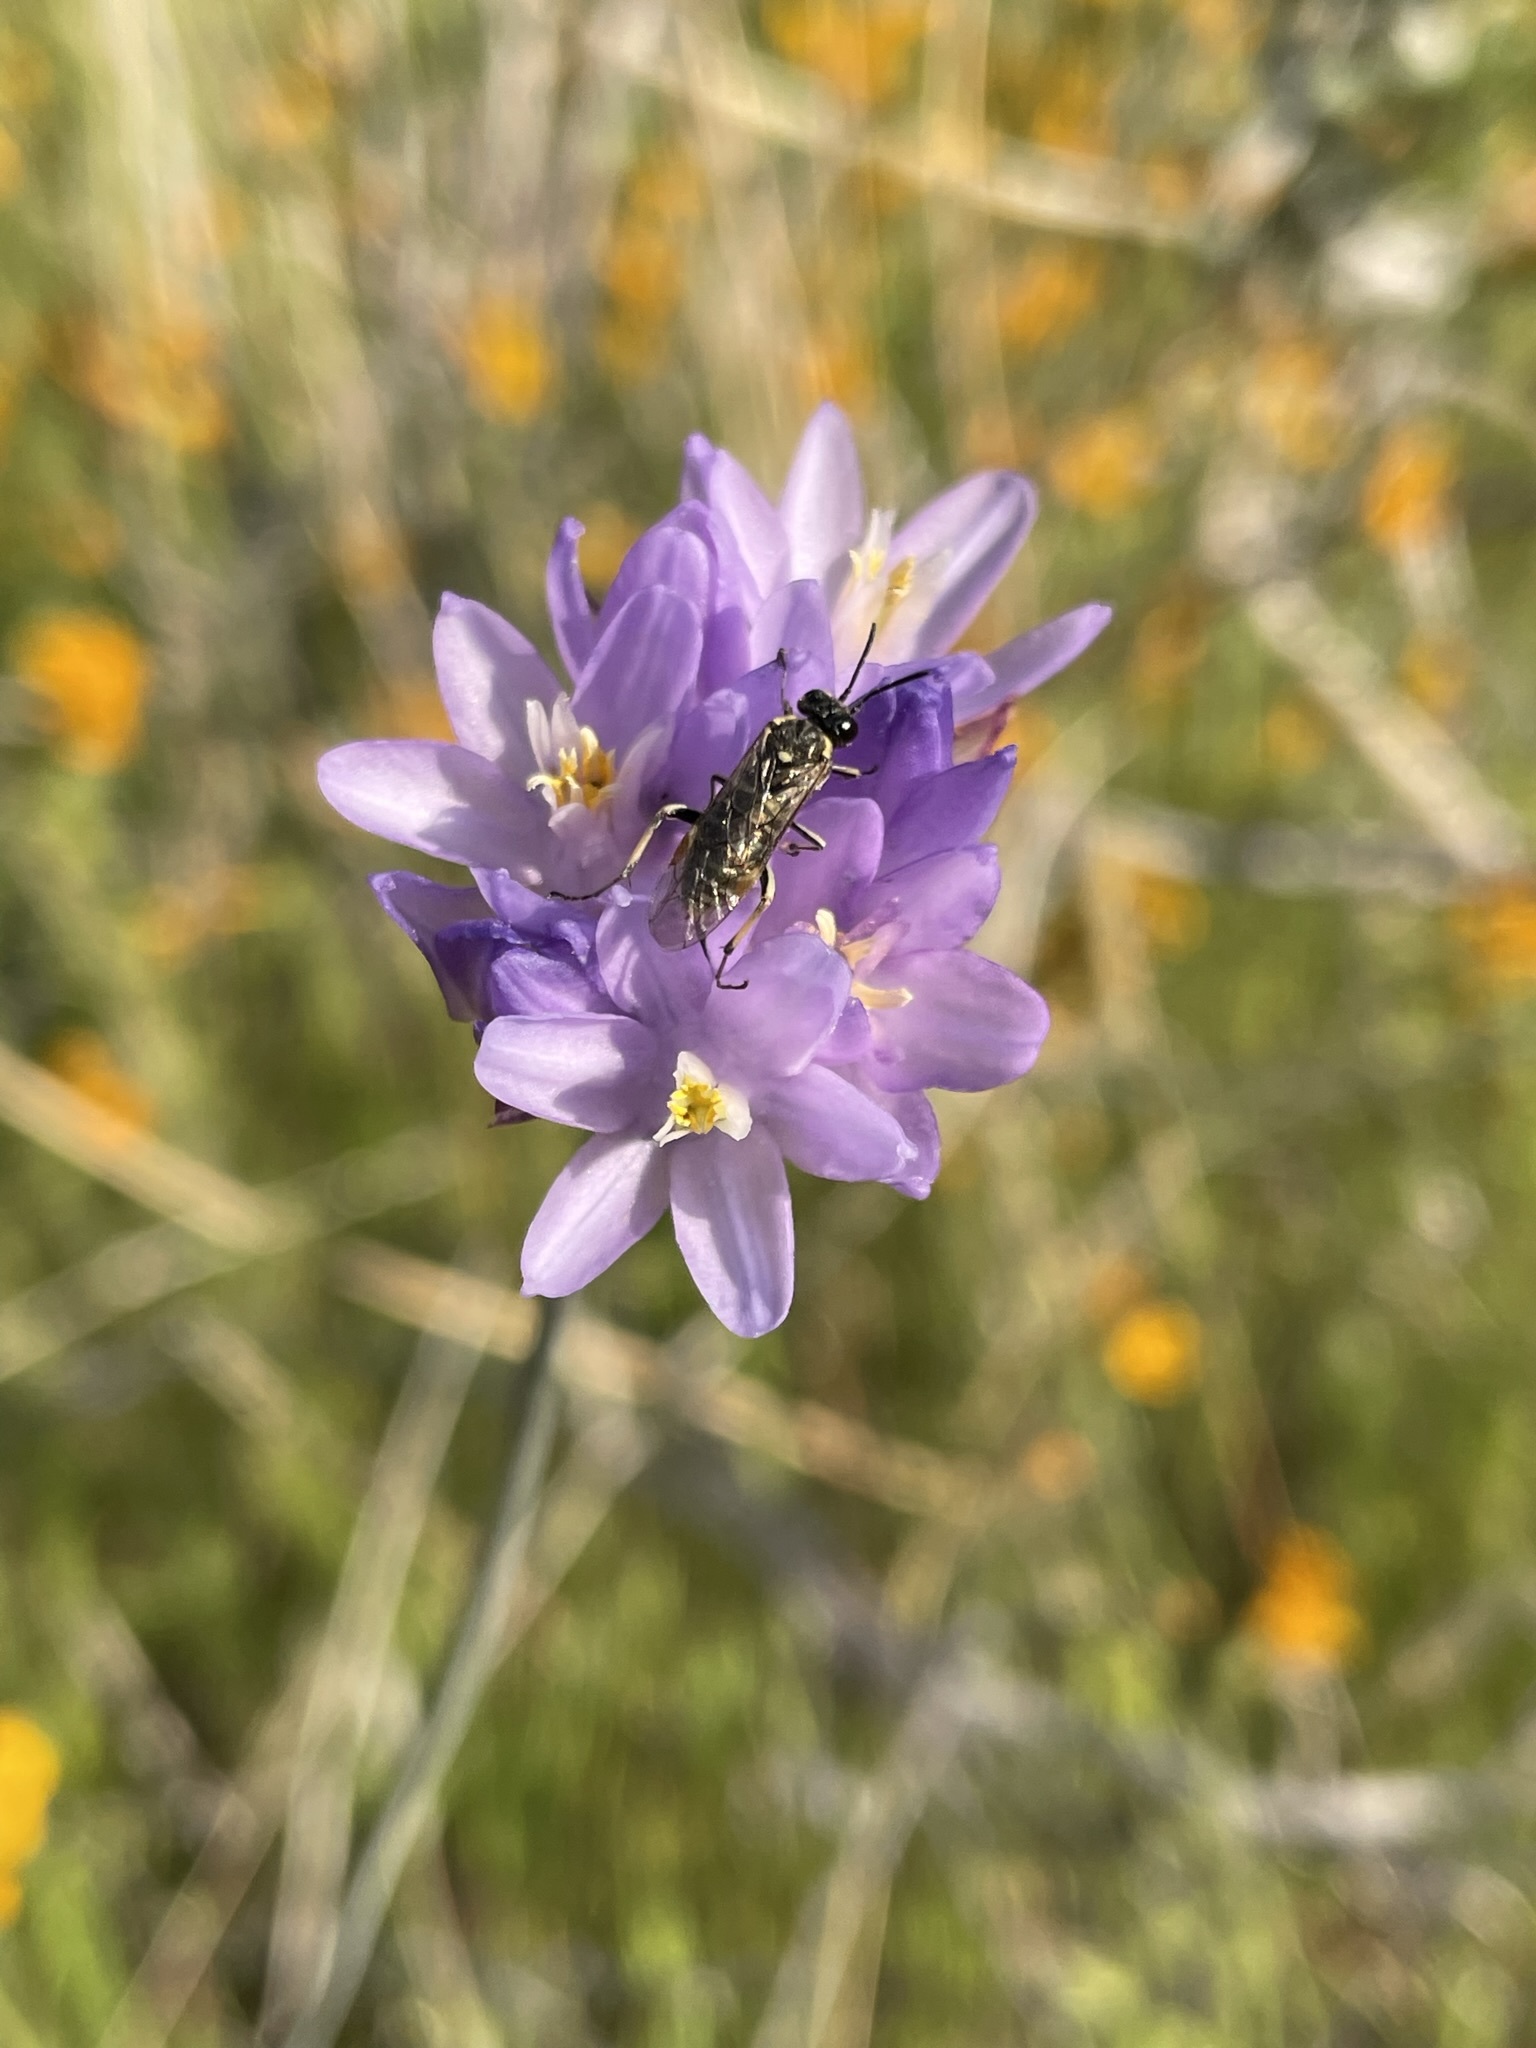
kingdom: Plantae
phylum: Tracheophyta
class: Liliopsida
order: Asparagales
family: Asparagaceae
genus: Dipterostemon
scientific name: Dipterostemon capitatus
